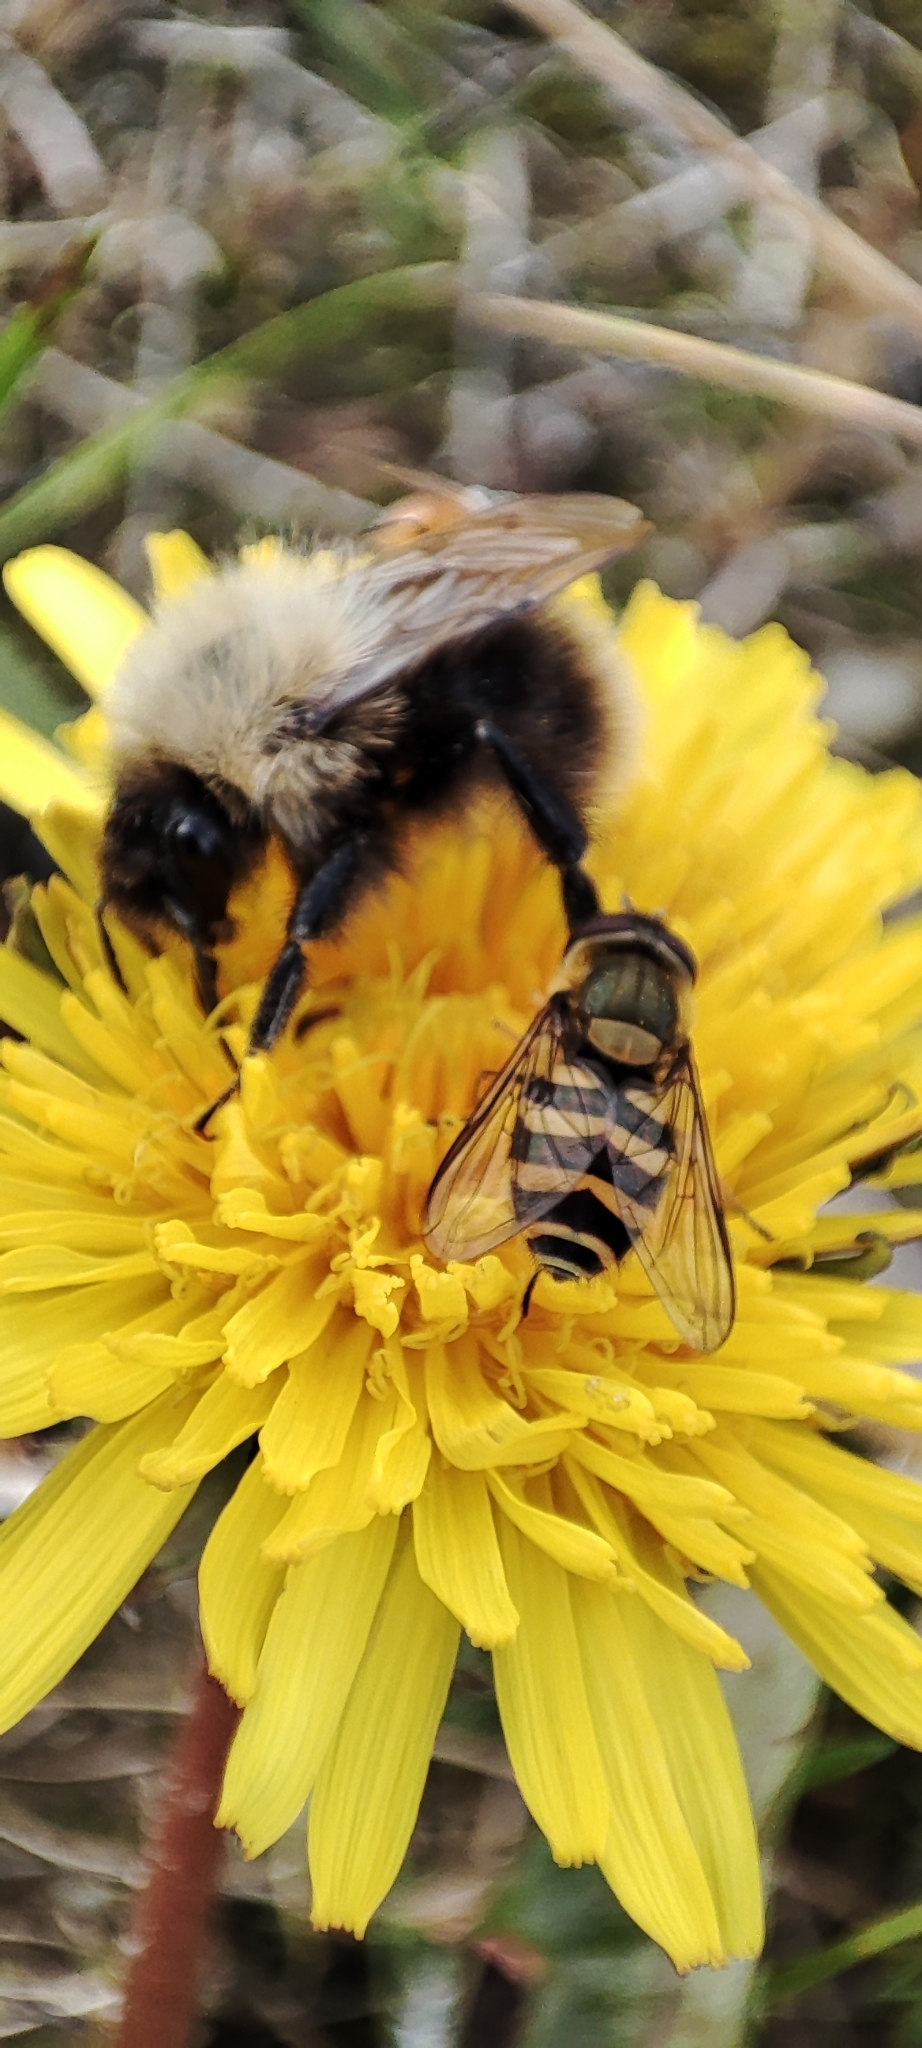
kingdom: Animalia
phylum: Arthropoda
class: Insecta
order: Diptera
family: Syrphidae
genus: Syrphus
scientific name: Syrphus
